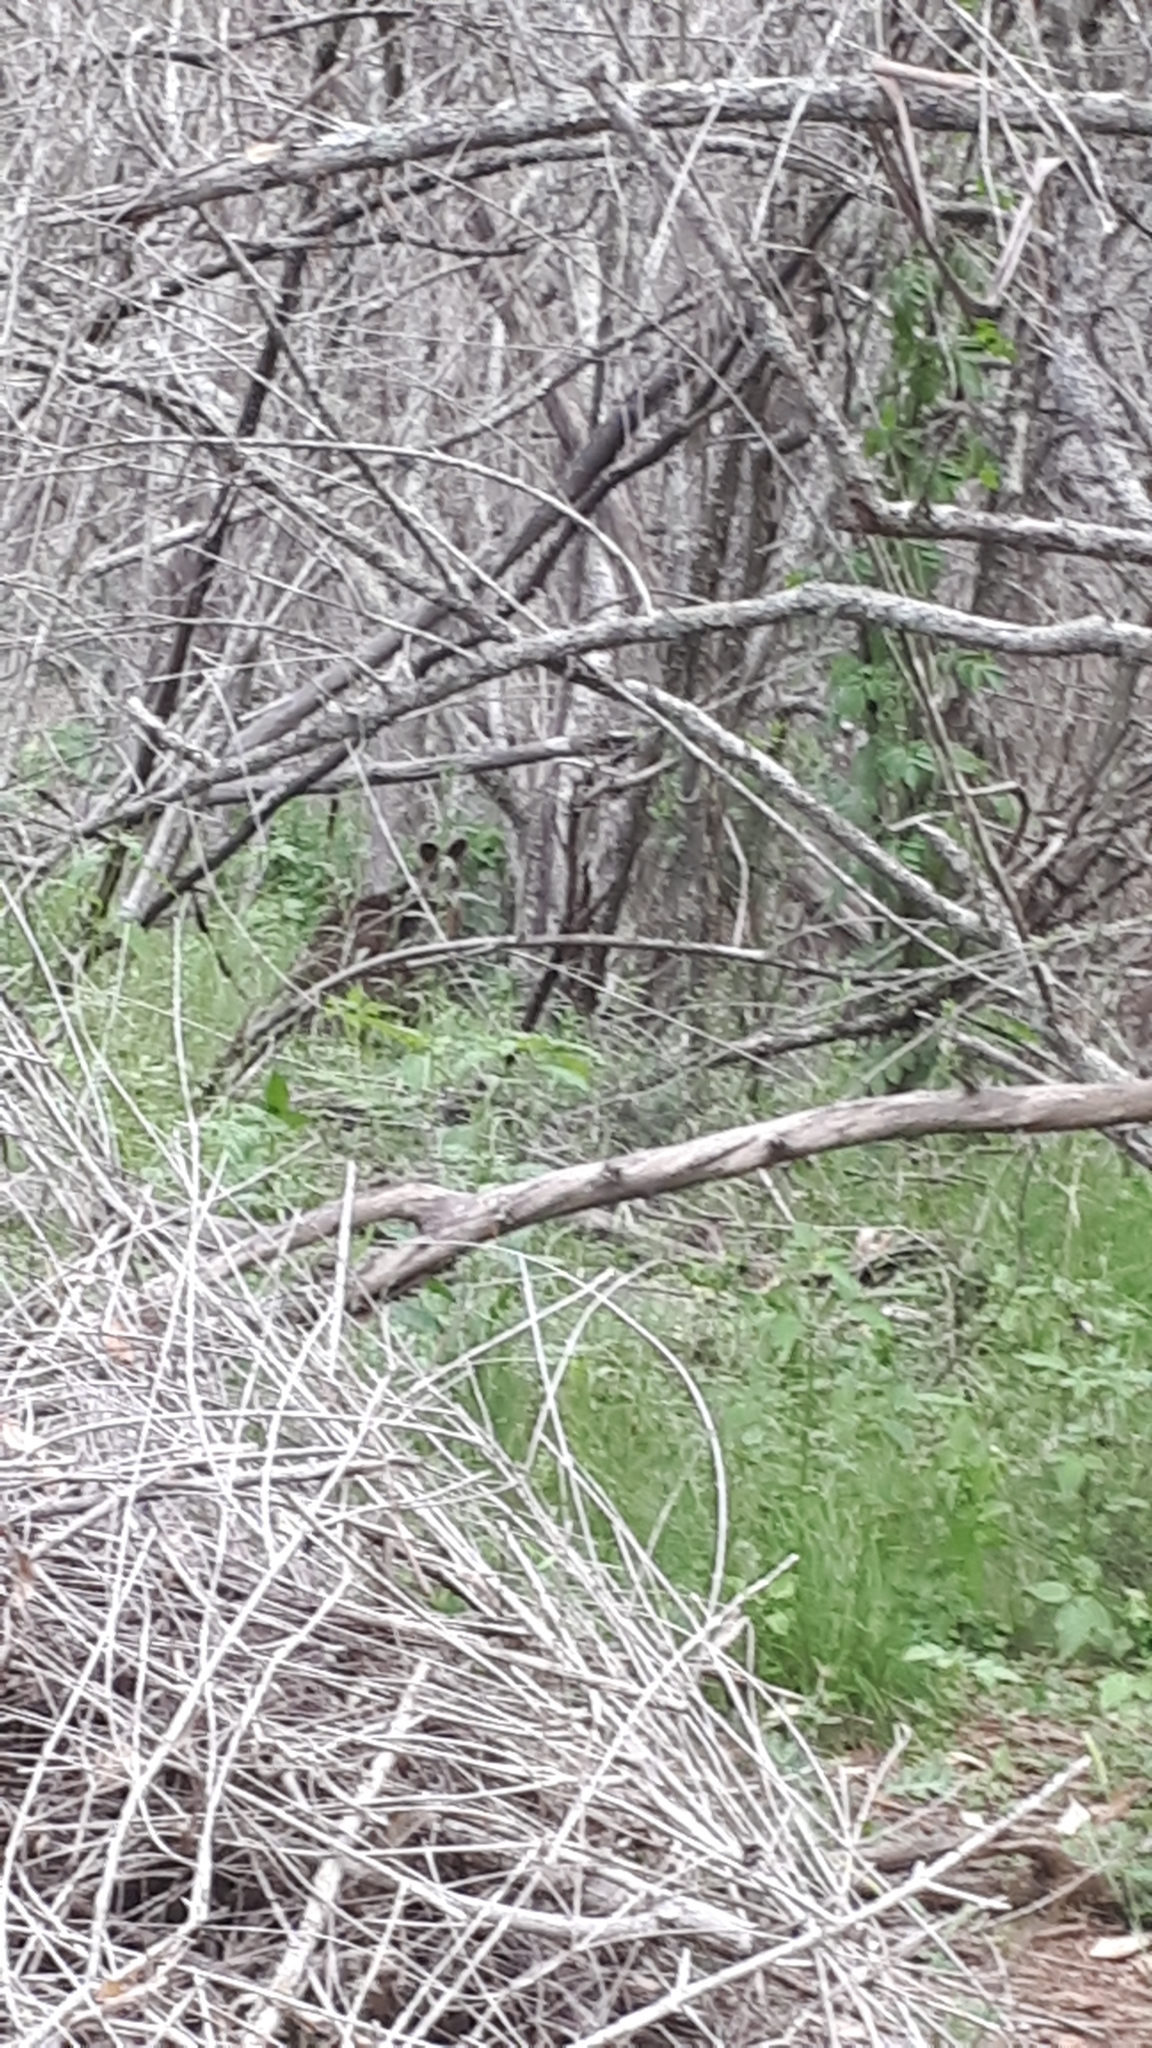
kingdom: Animalia
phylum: Chordata
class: Mammalia
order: Diprotodontia
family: Macropodidae
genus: Wallabia
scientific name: Wallabia bicolor
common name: Swamp wallaby
